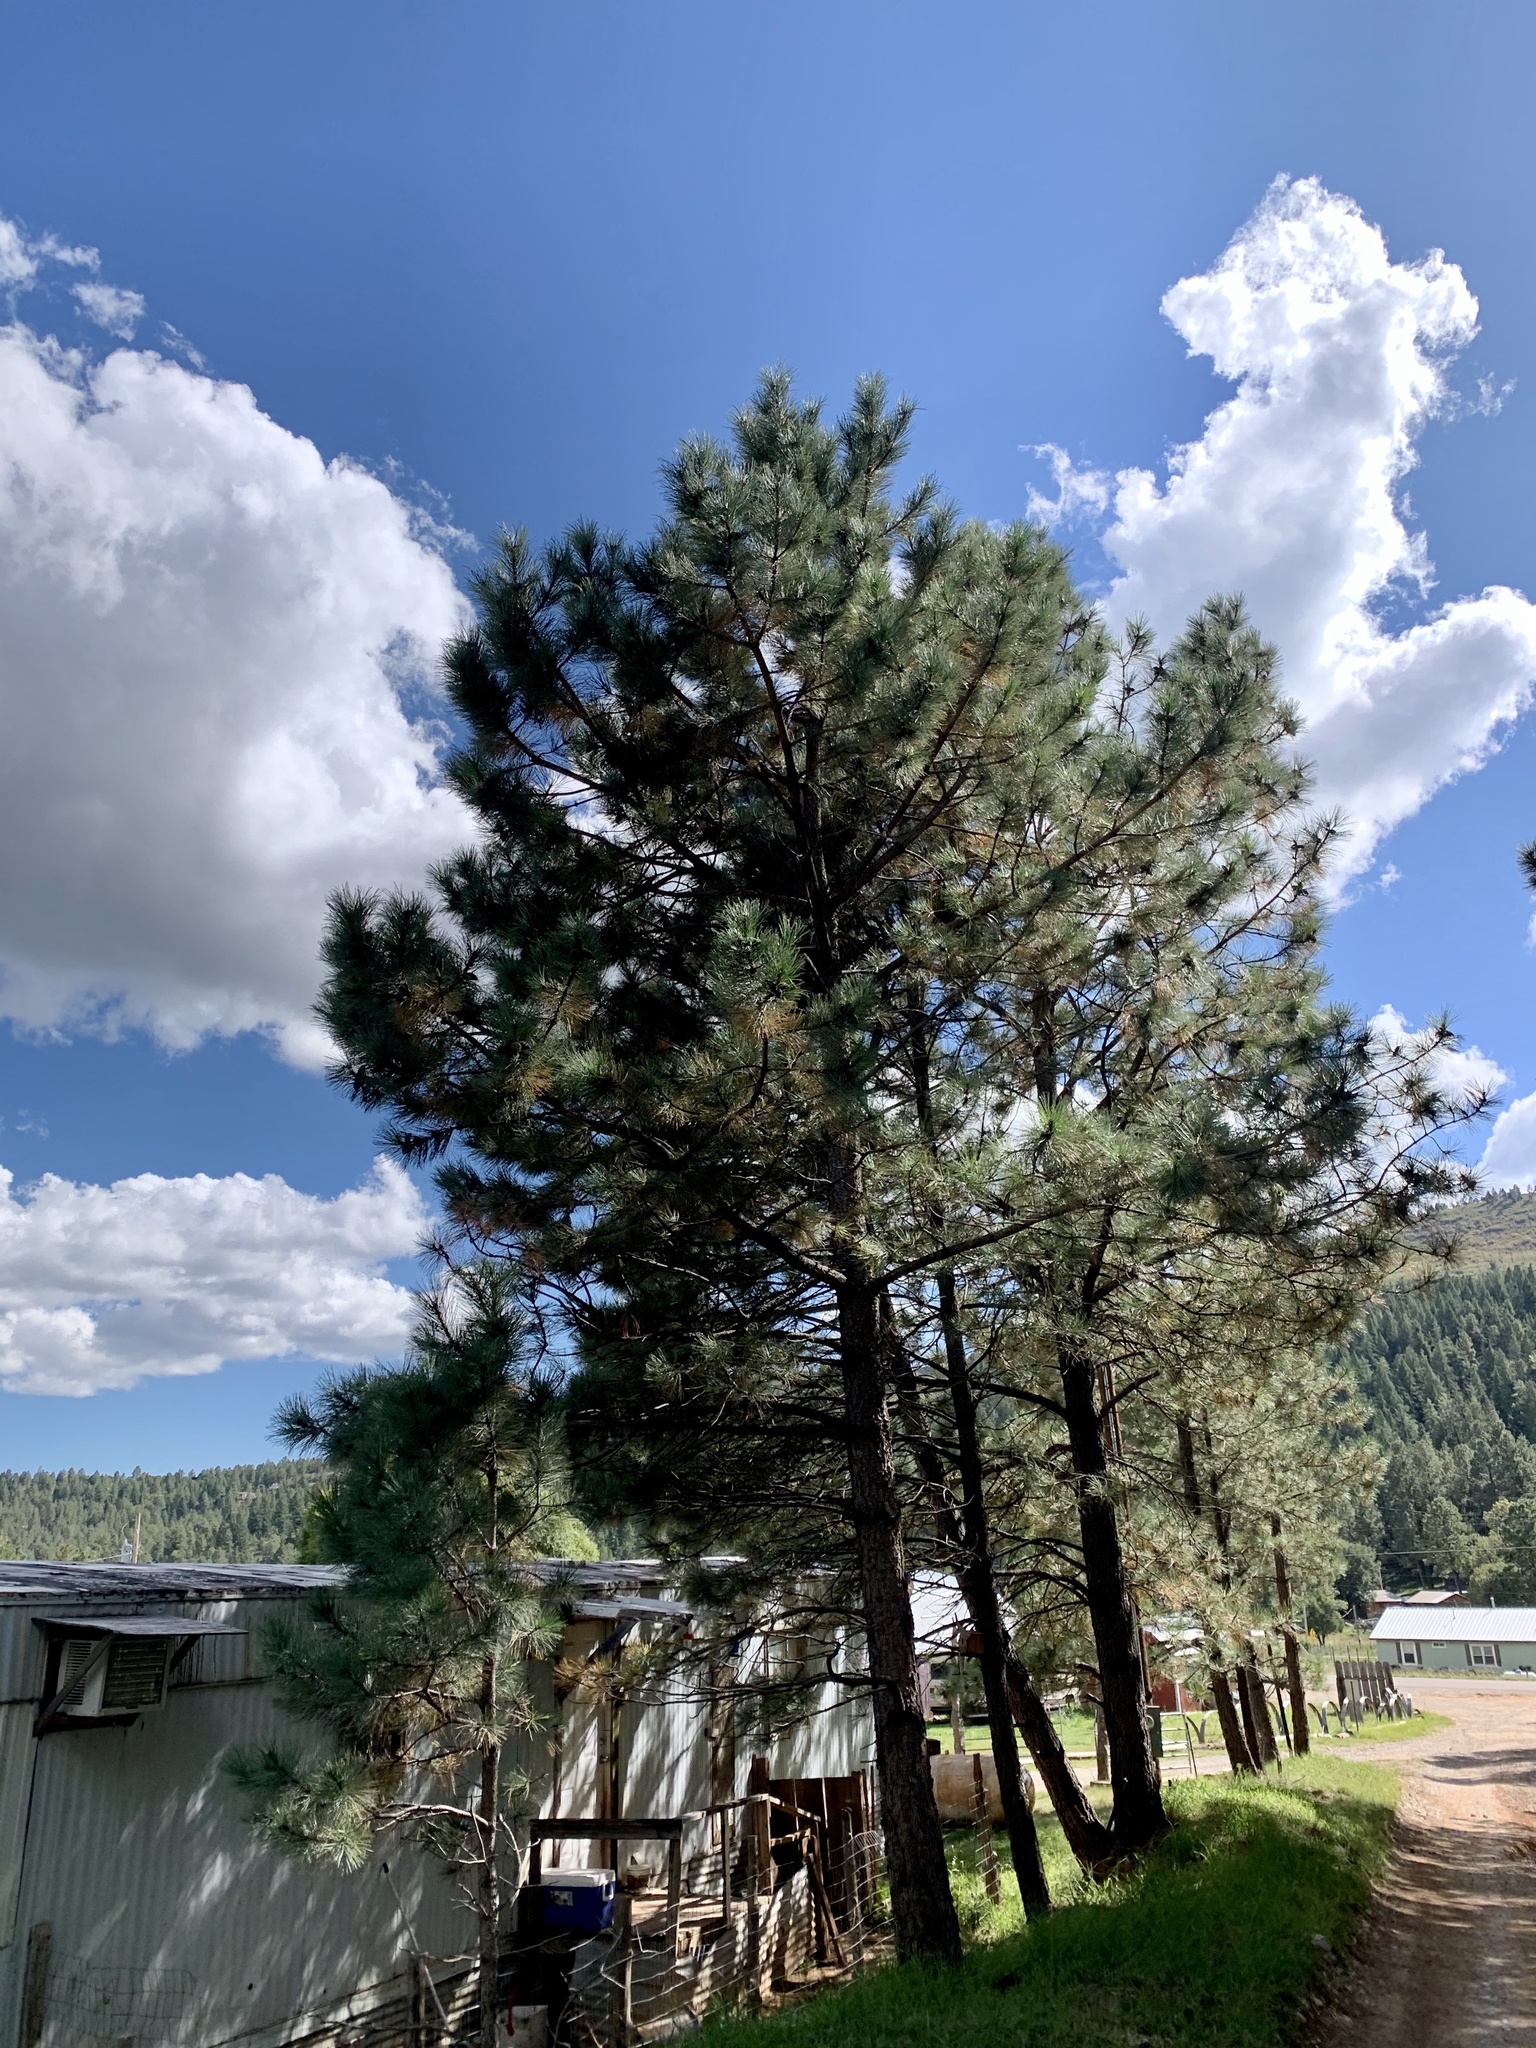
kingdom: Plantae
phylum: Tracheophyta
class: Pinopsida
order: Pinales
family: Pinaceae
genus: Pinus
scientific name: Pinus ponderosa
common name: Western yellow-pine
